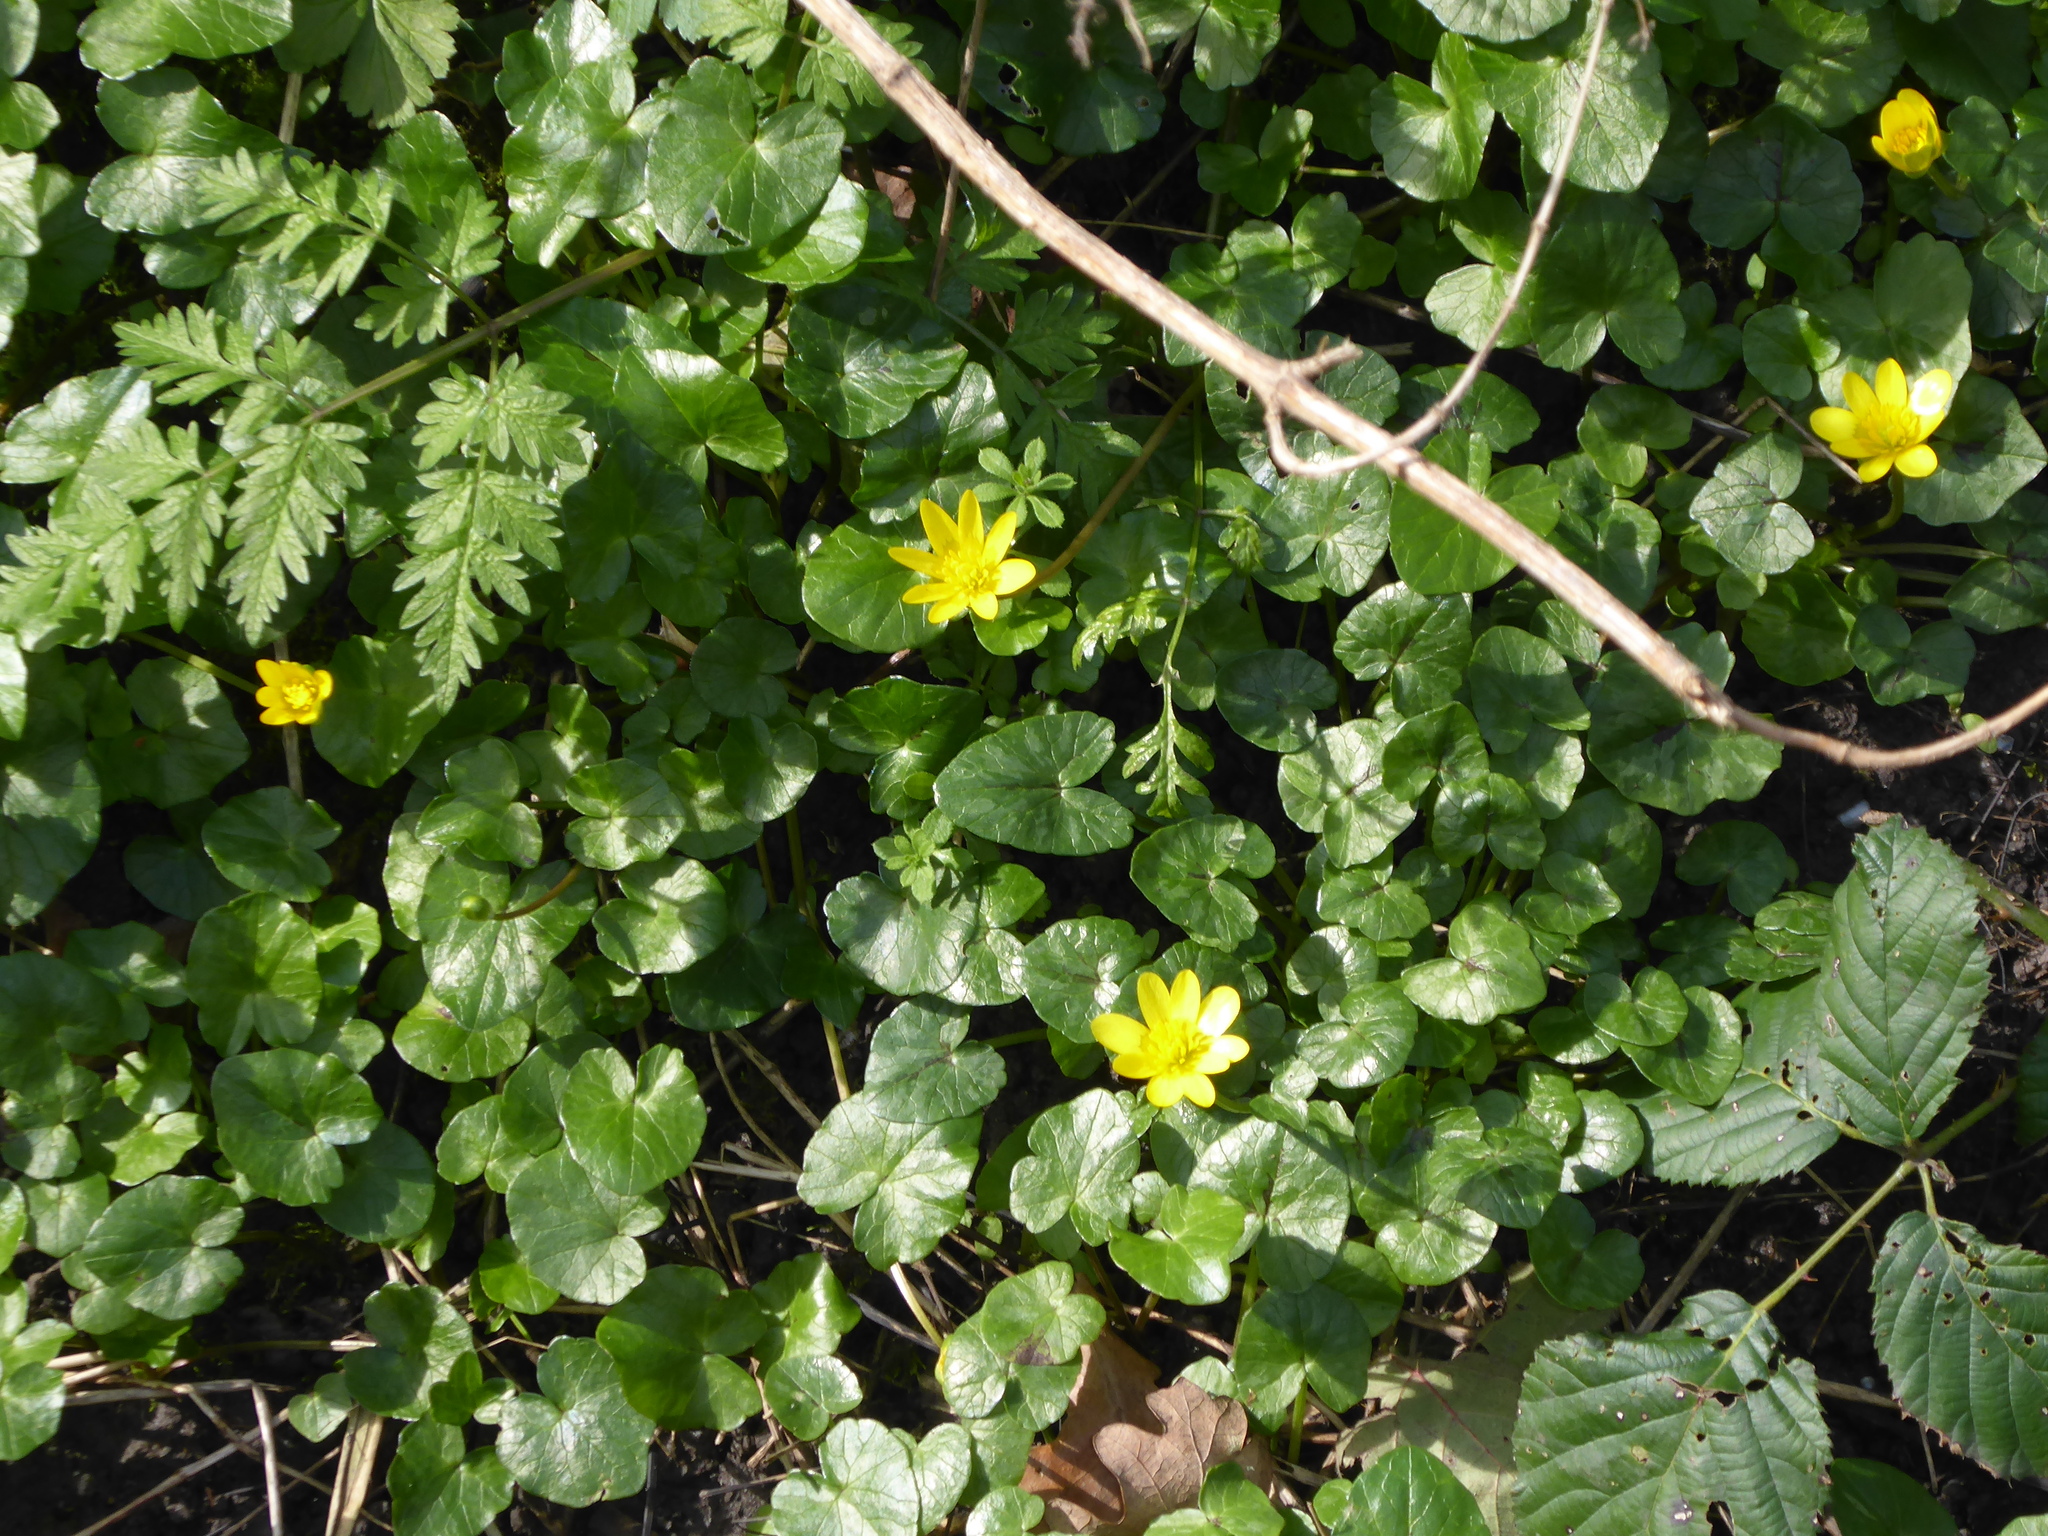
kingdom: Plantae
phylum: Tracheophyta
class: Magnoliopsida
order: Ranunculales
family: Ranunculaceae
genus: Ficaria
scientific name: Ficaria verna
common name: Lesser celandine
